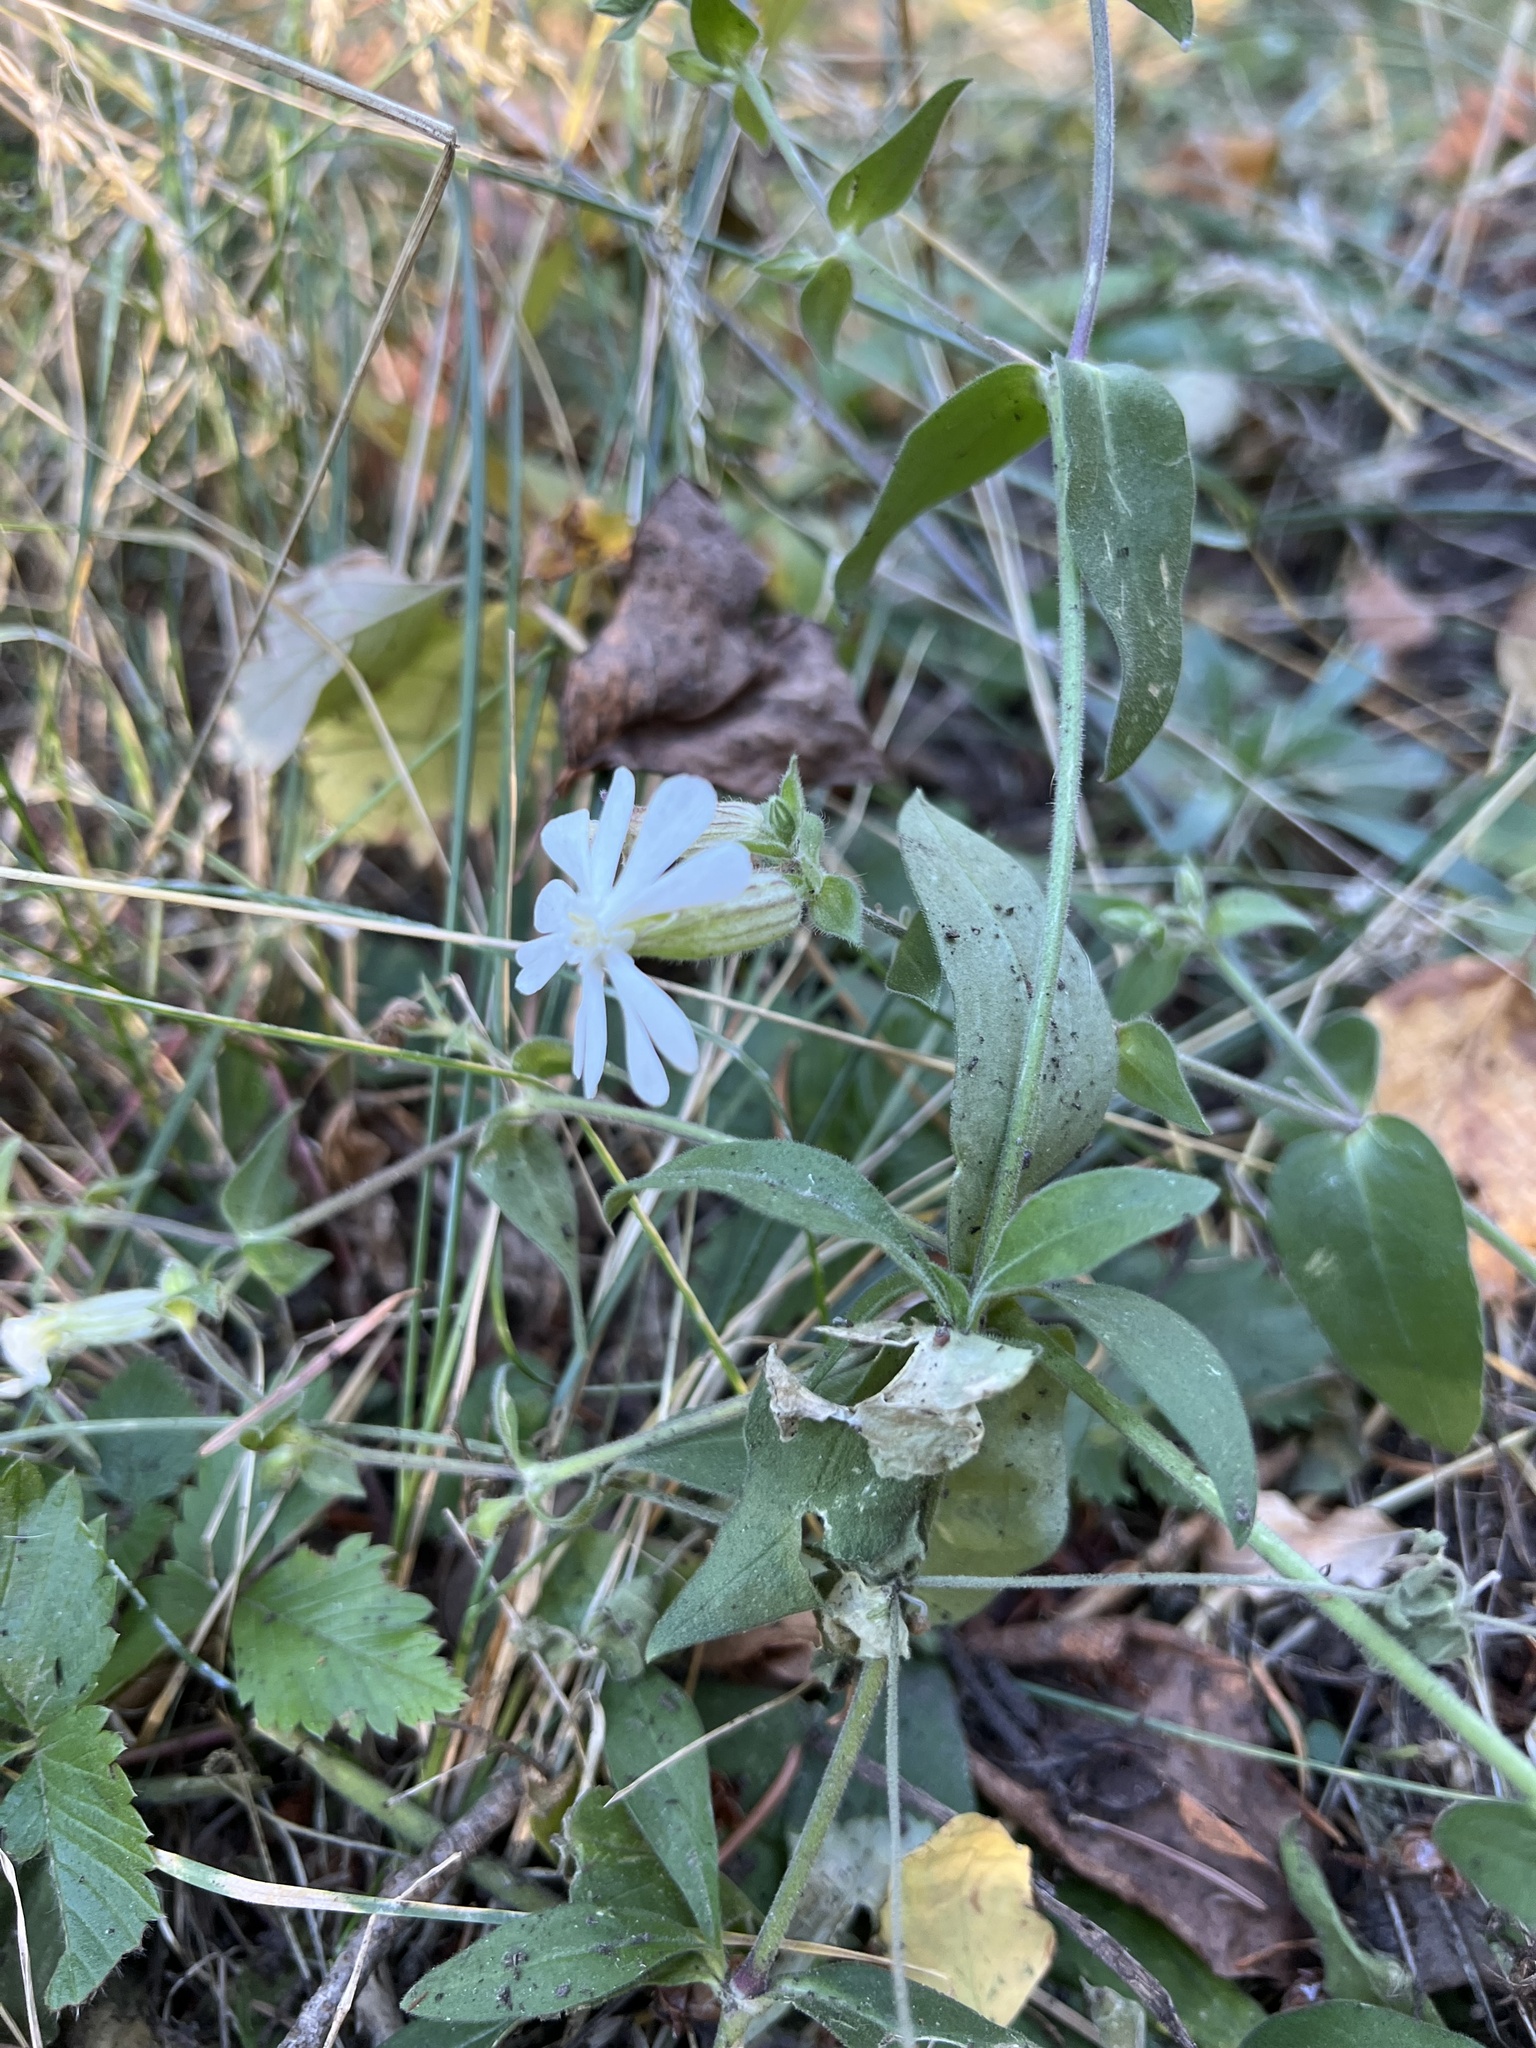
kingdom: Plantae
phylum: Tracheophyta
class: Magnoliopsida
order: Caryophyllales
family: Caryophyllaceae
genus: Silene
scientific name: Silene latifolia
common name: White campion
